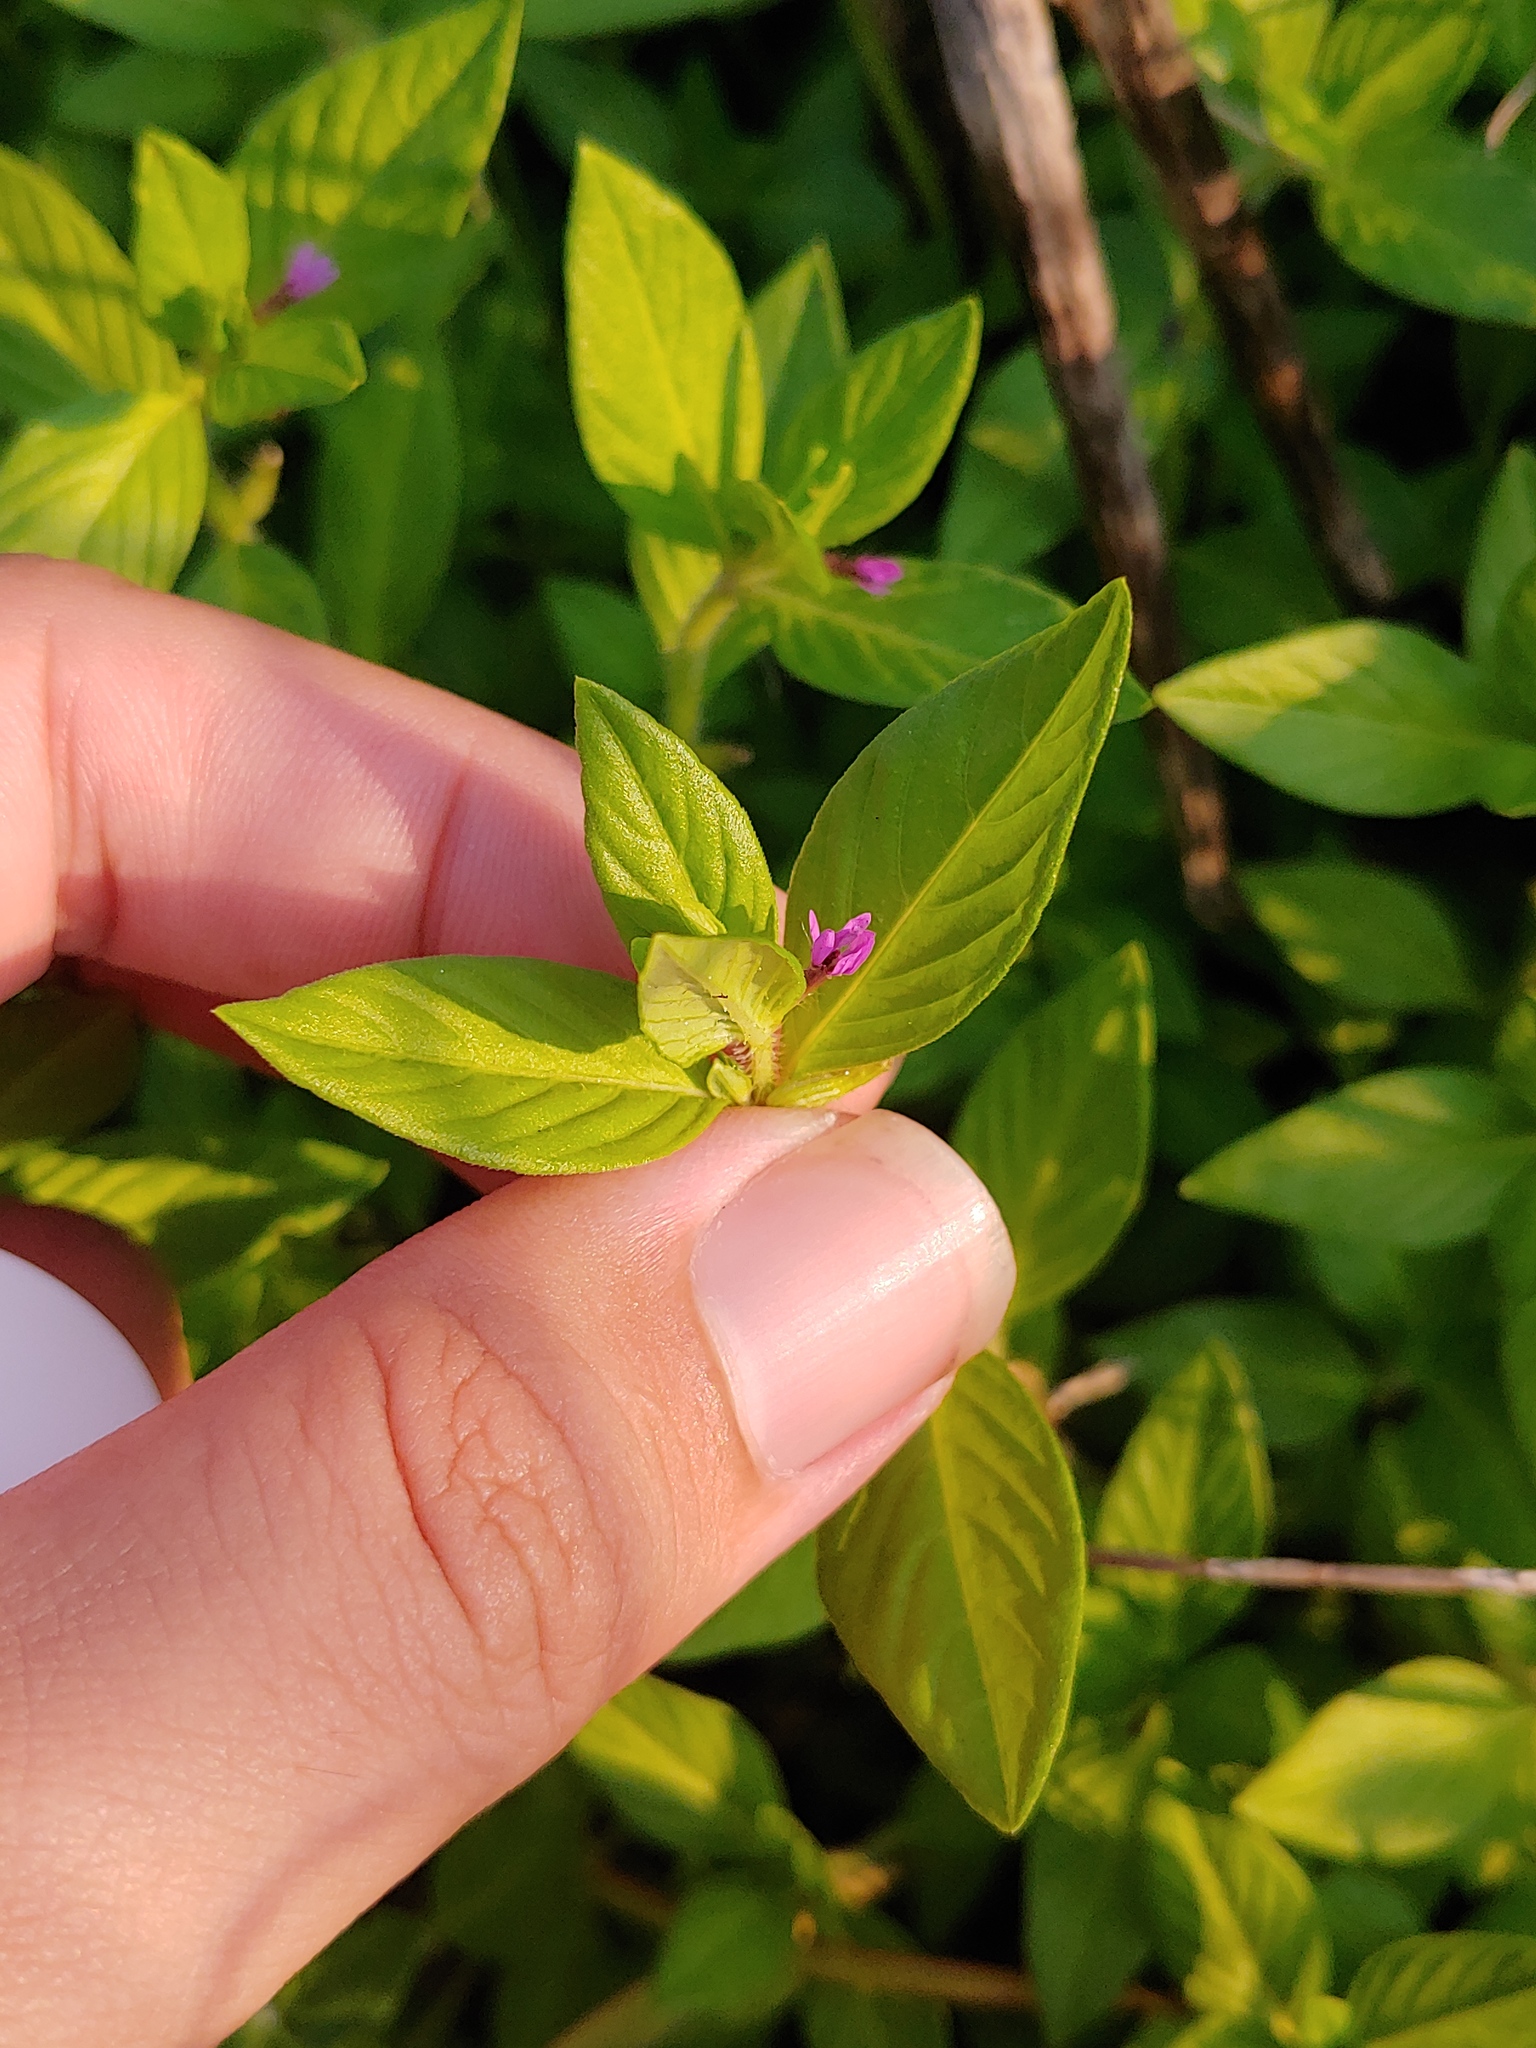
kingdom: Plantae
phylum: Tracheophyta
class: Magnoliopsida
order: Myrtales
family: Lythraceae
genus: Cuphea
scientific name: Cuphea carthagenensis
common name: Colombian waxweed
